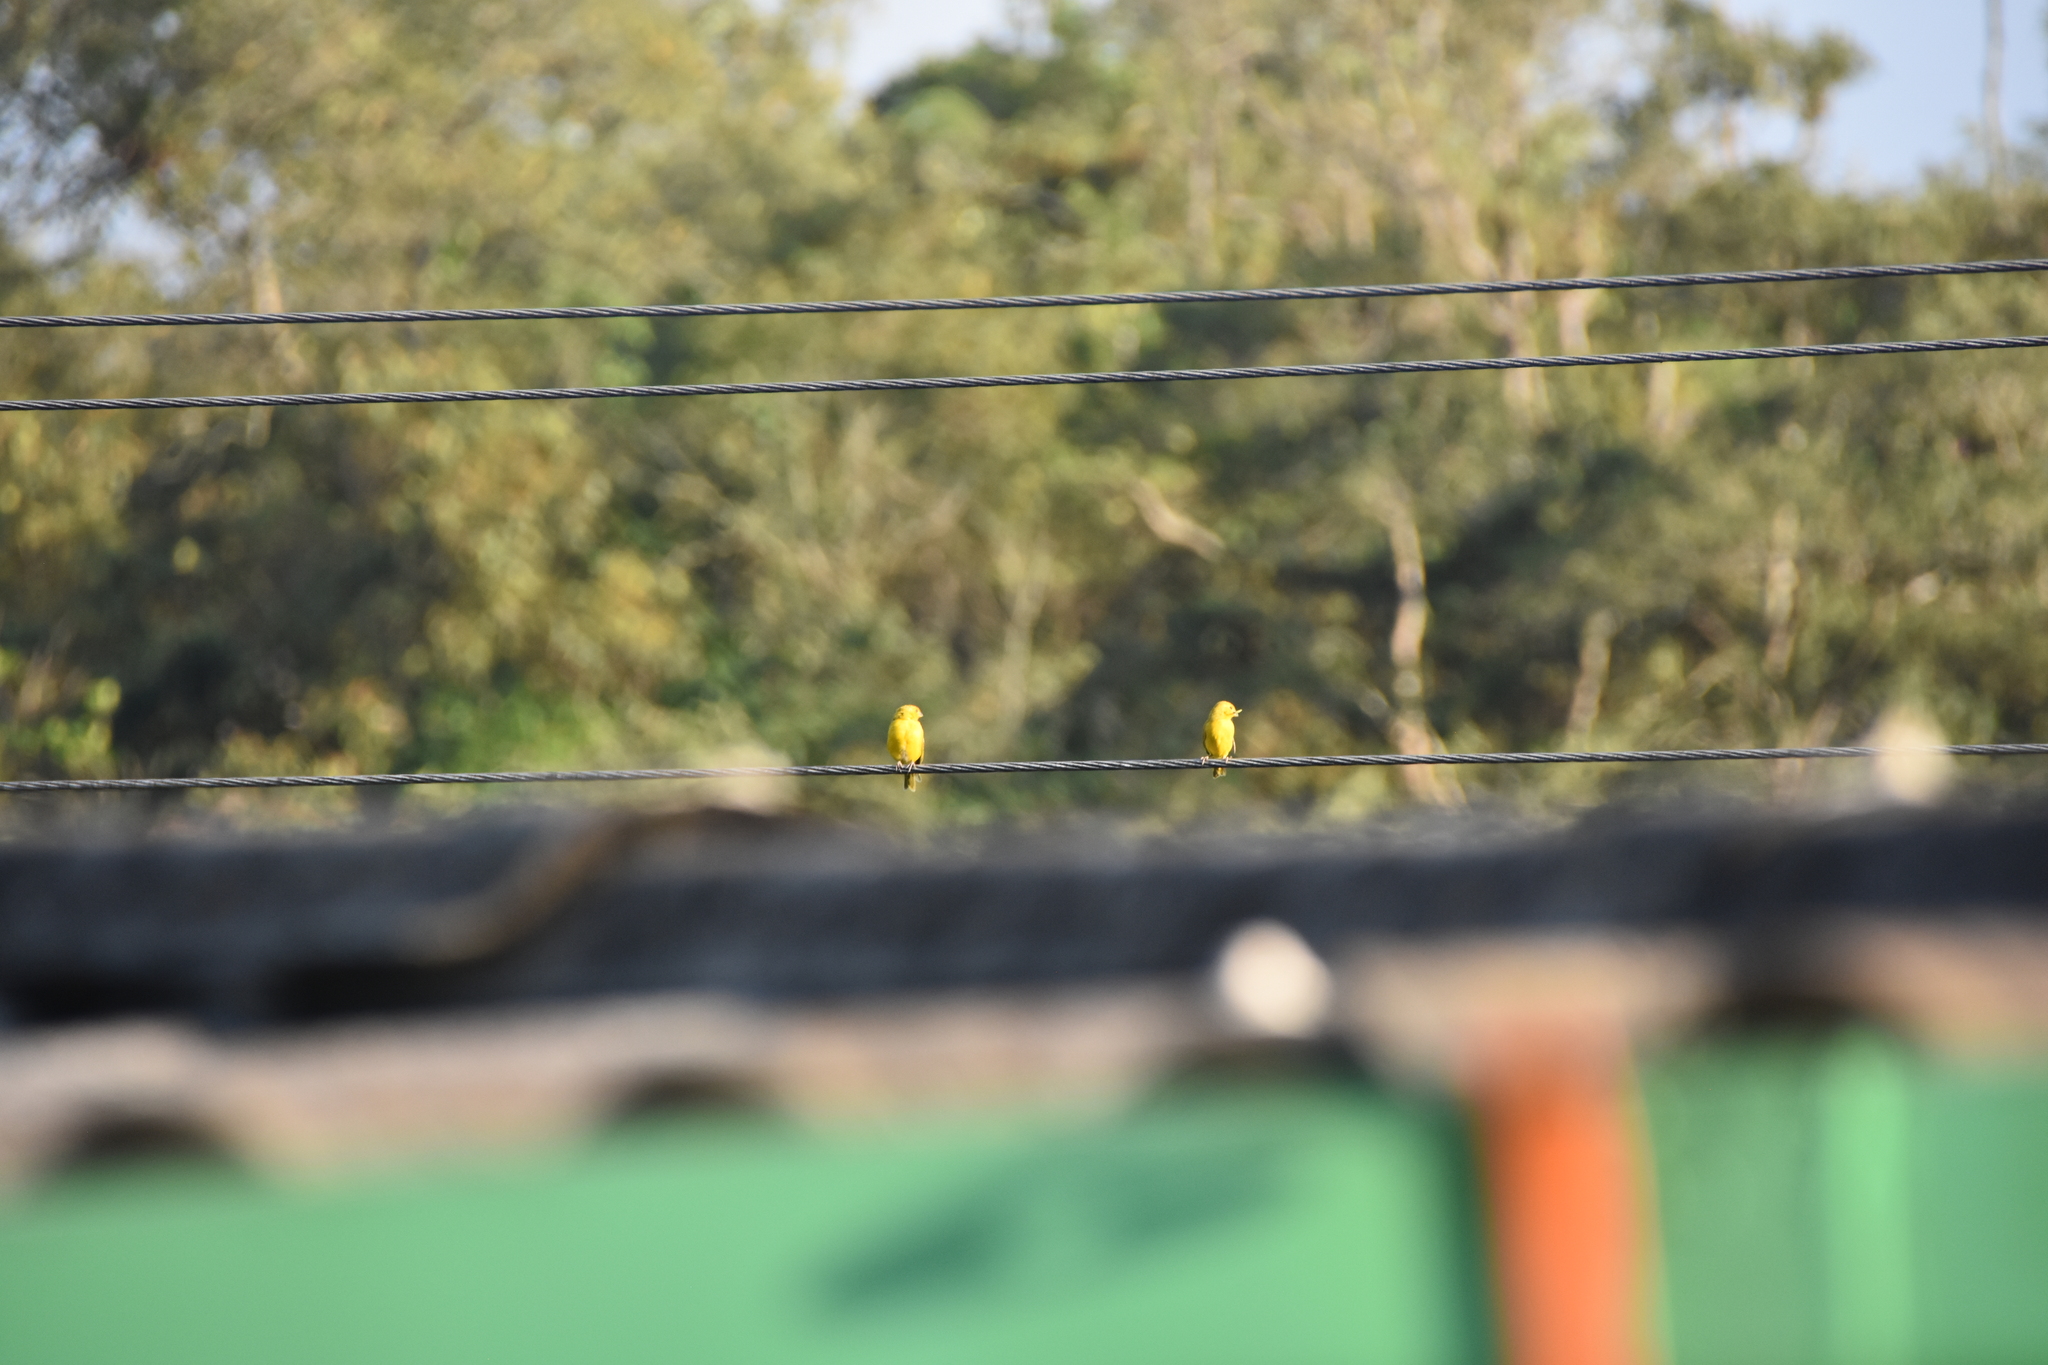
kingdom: Animalia
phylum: Chordata
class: Aves
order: Passeriformes
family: Thraupidae
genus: Sicalis
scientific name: Sicalis flaveola
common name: Saffron finch
